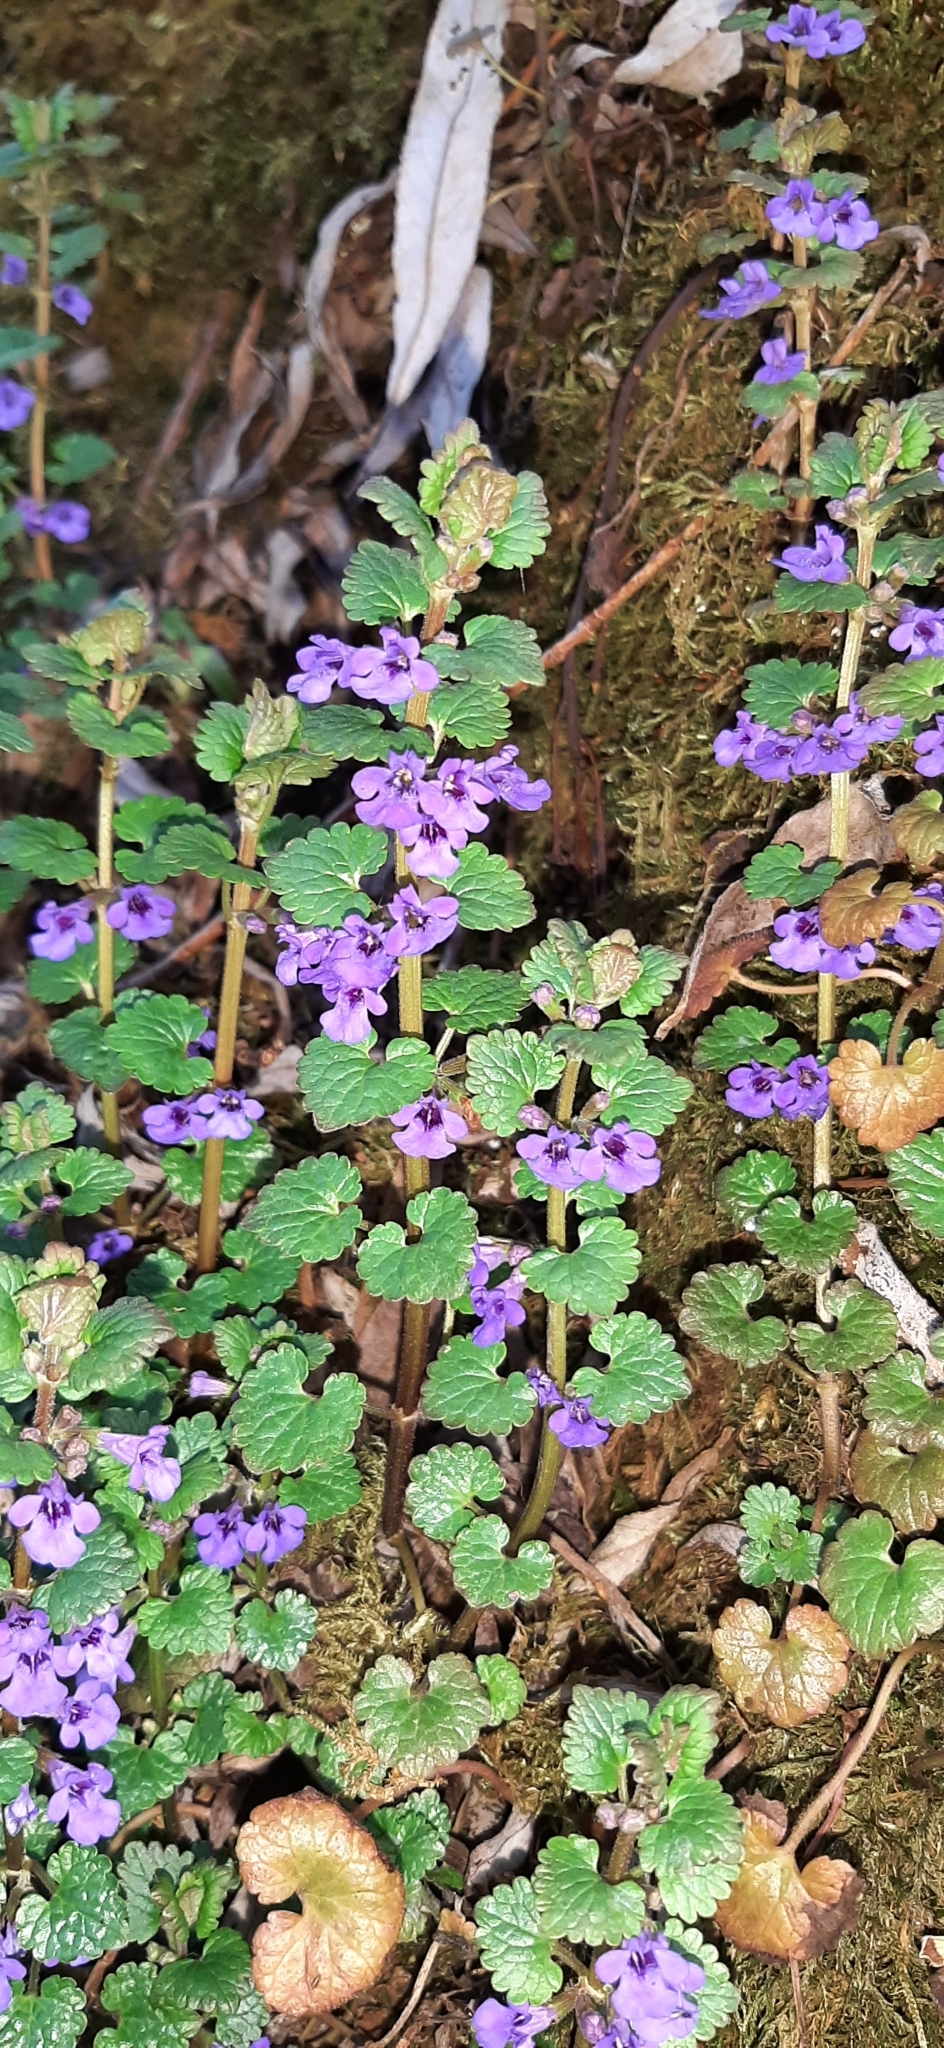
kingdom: Plantae
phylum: Tracheophyta
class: Magnoliopsida
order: Lamiales
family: Lamiaceae
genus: Glechoma
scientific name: Glechoma hederacea
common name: Ground ivy
